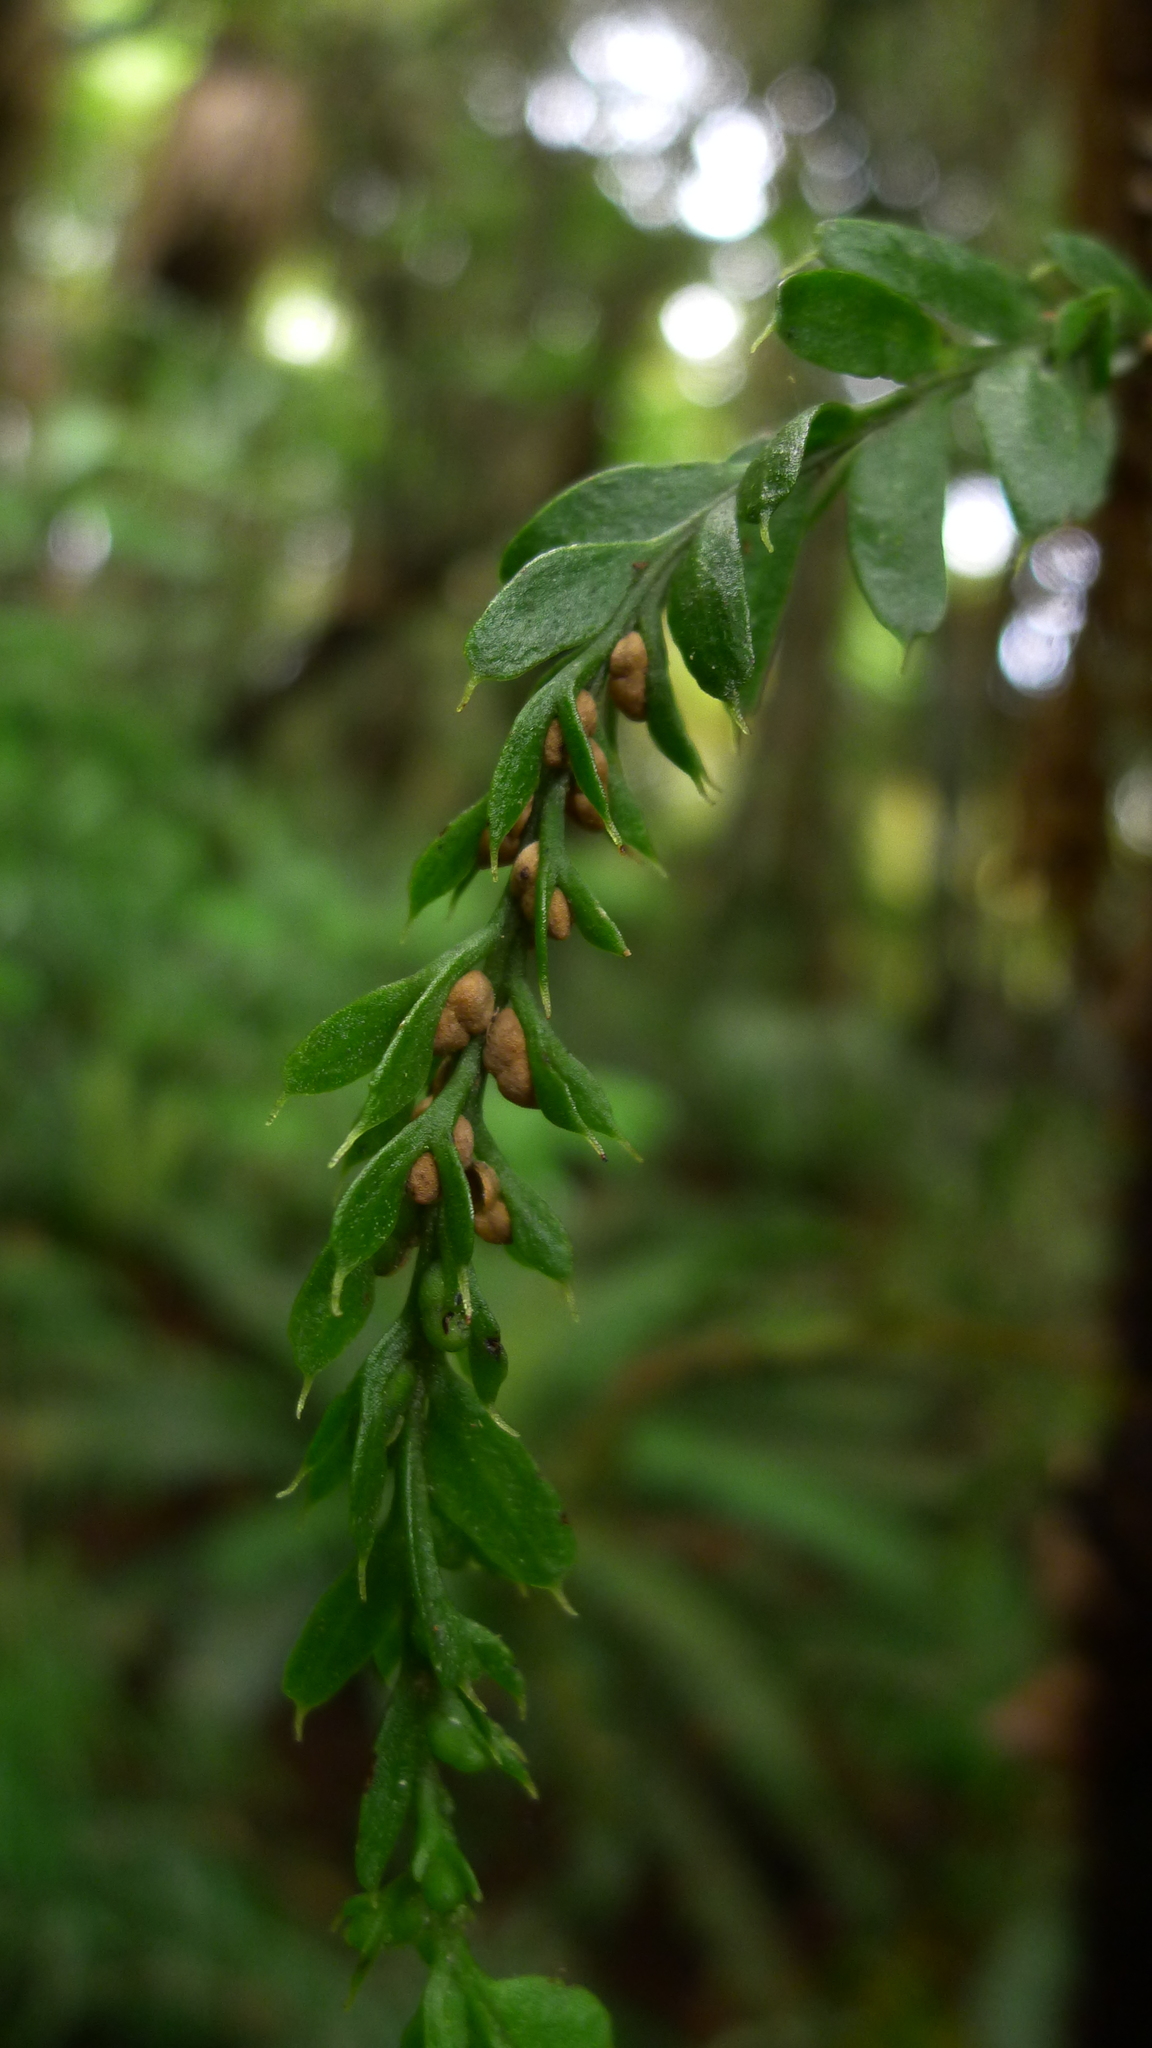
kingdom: Plantae
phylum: Tracheophyta
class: Polypodiopsida
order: Psilotales
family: Psilotaceae
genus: Tmesipteris
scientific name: Tmesipteris horomaka
